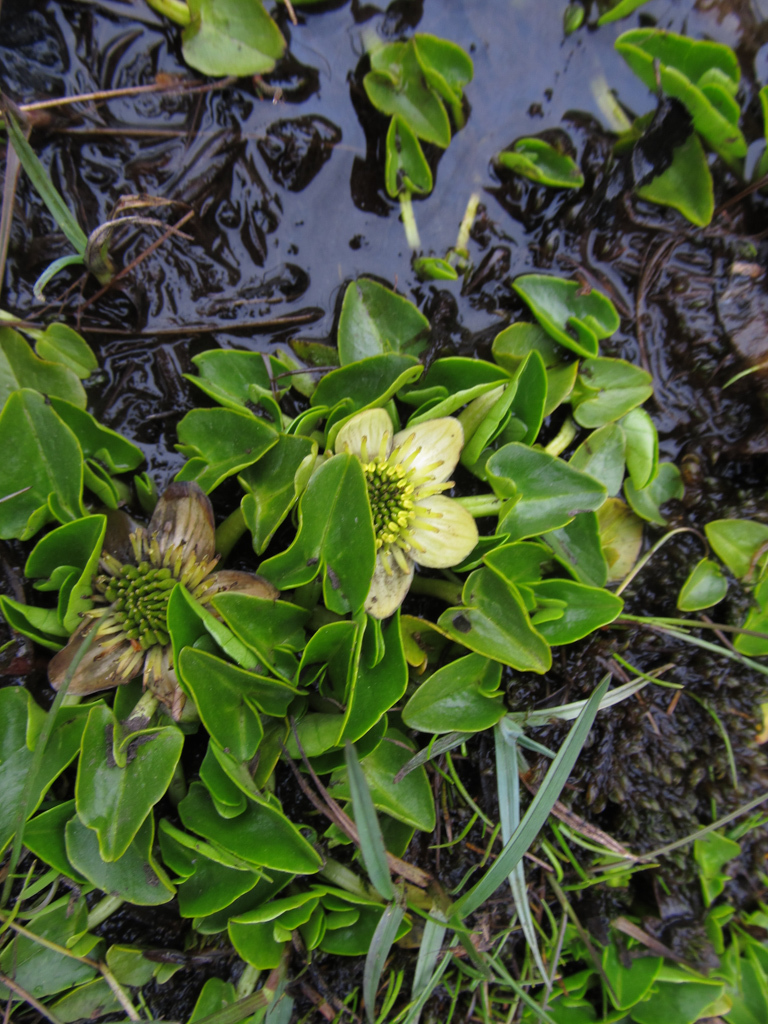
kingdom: Plantae
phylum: Tracheophyta
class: Magnoliopsida
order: Ranunculales
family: Ranunculaceae
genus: Caltha
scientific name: Caltha sagittata
